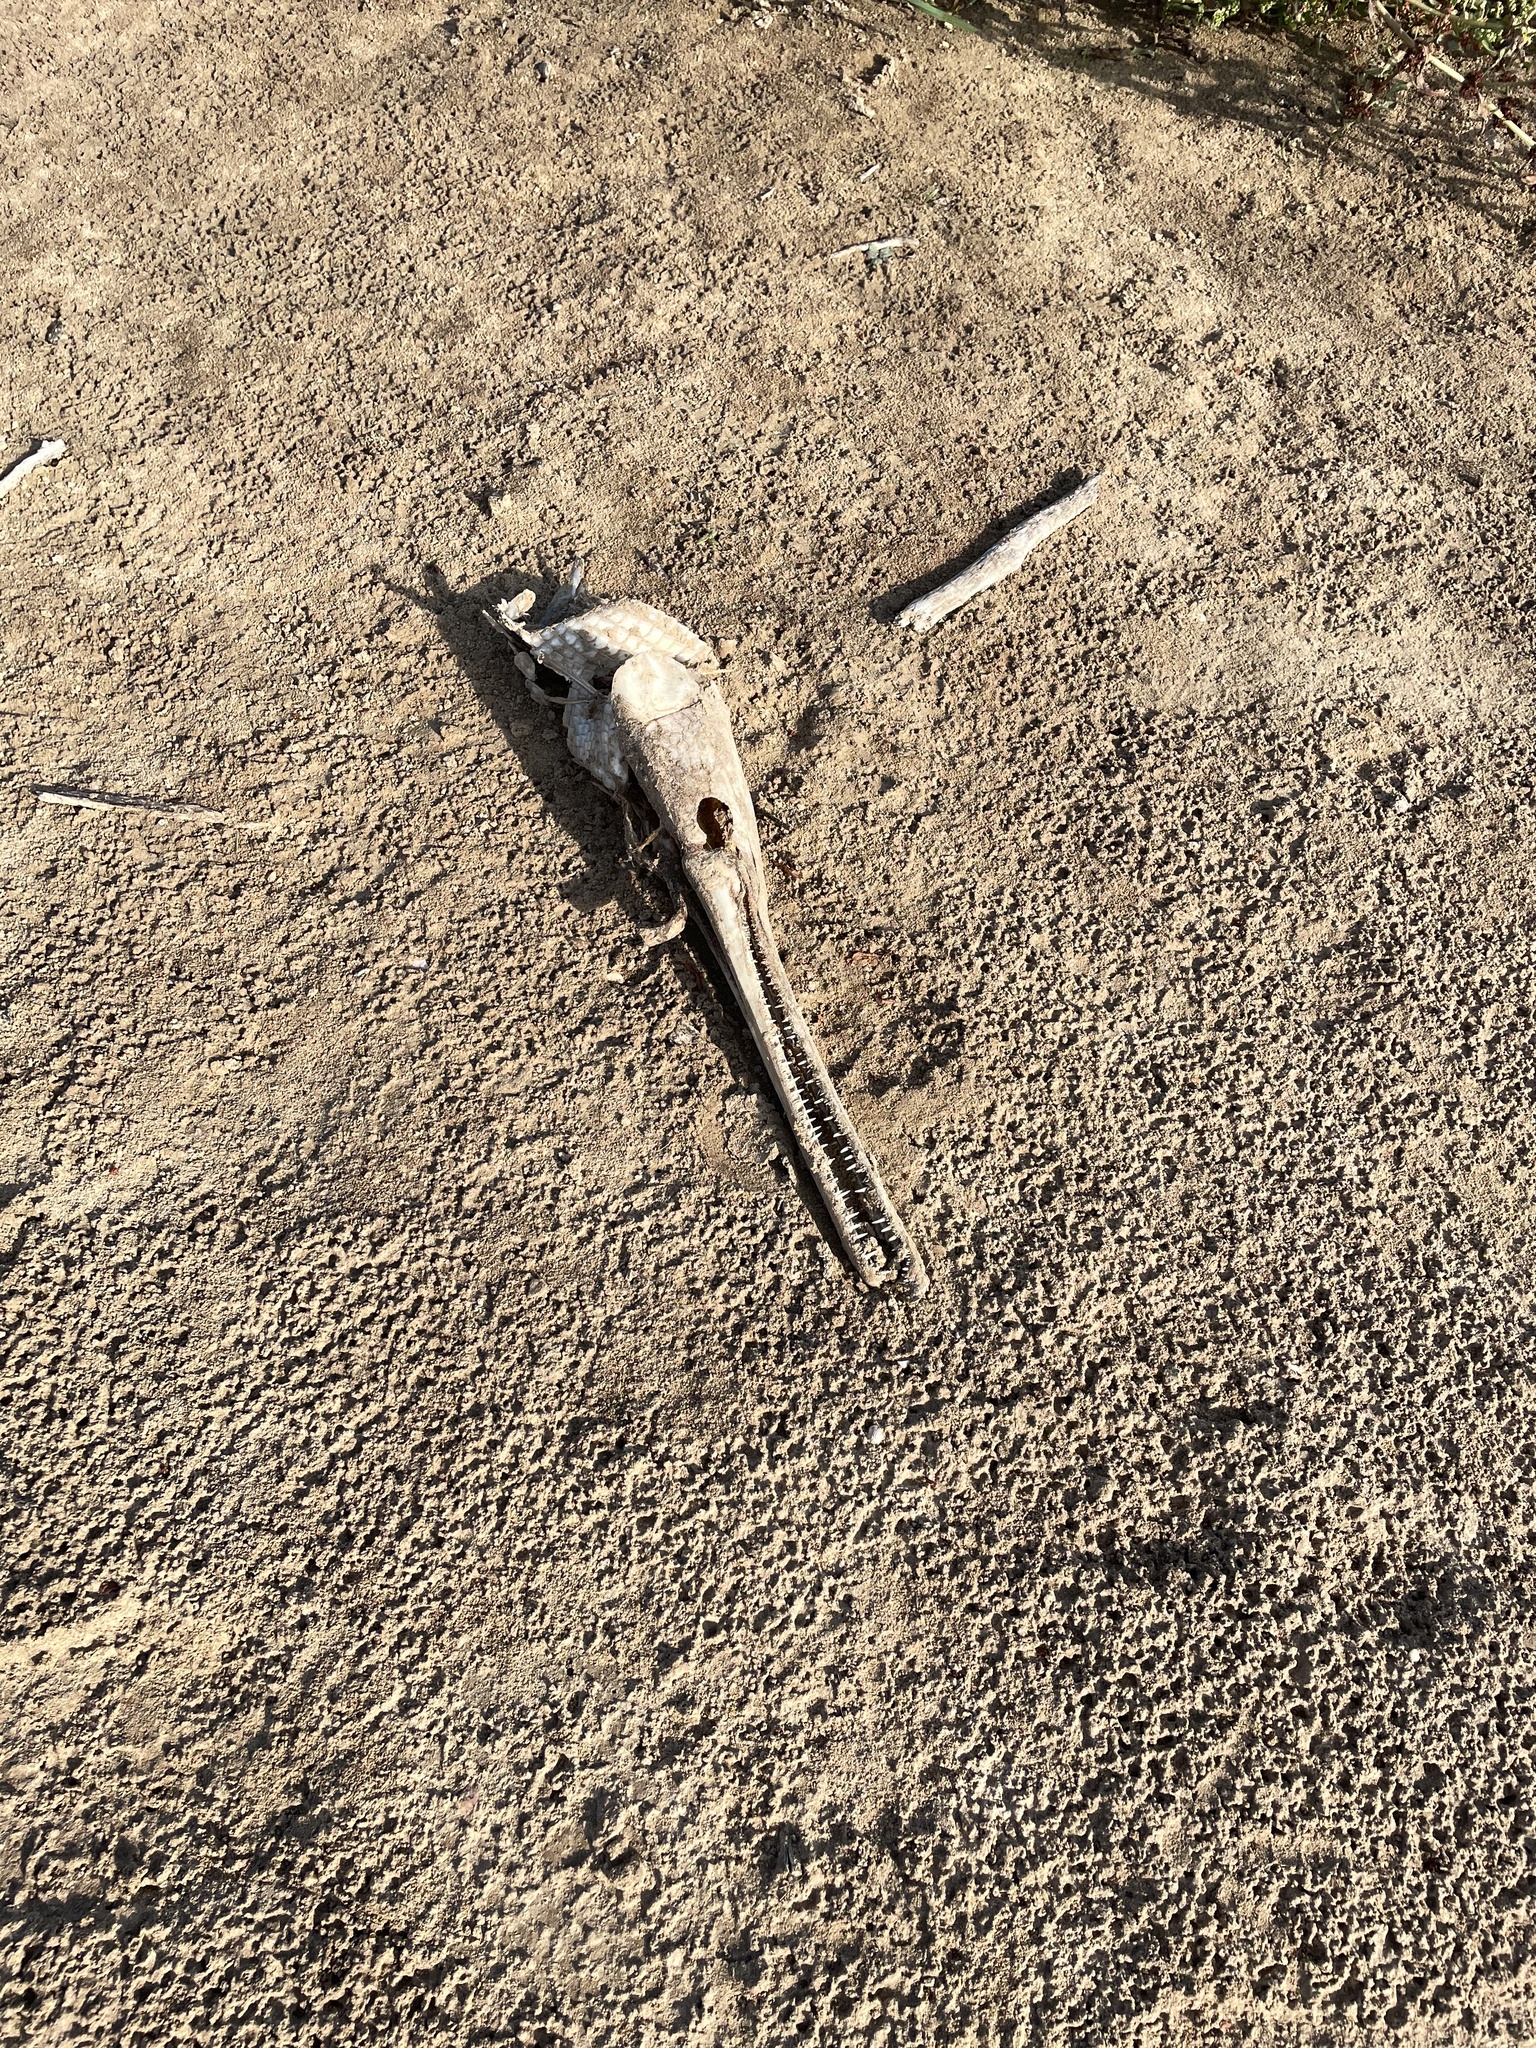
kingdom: Animalia
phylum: Chordata
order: Lepisosteiformes
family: Lepisosteidae
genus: Lepisosteus
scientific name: Lepisosteus osseus
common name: Longnose gar
